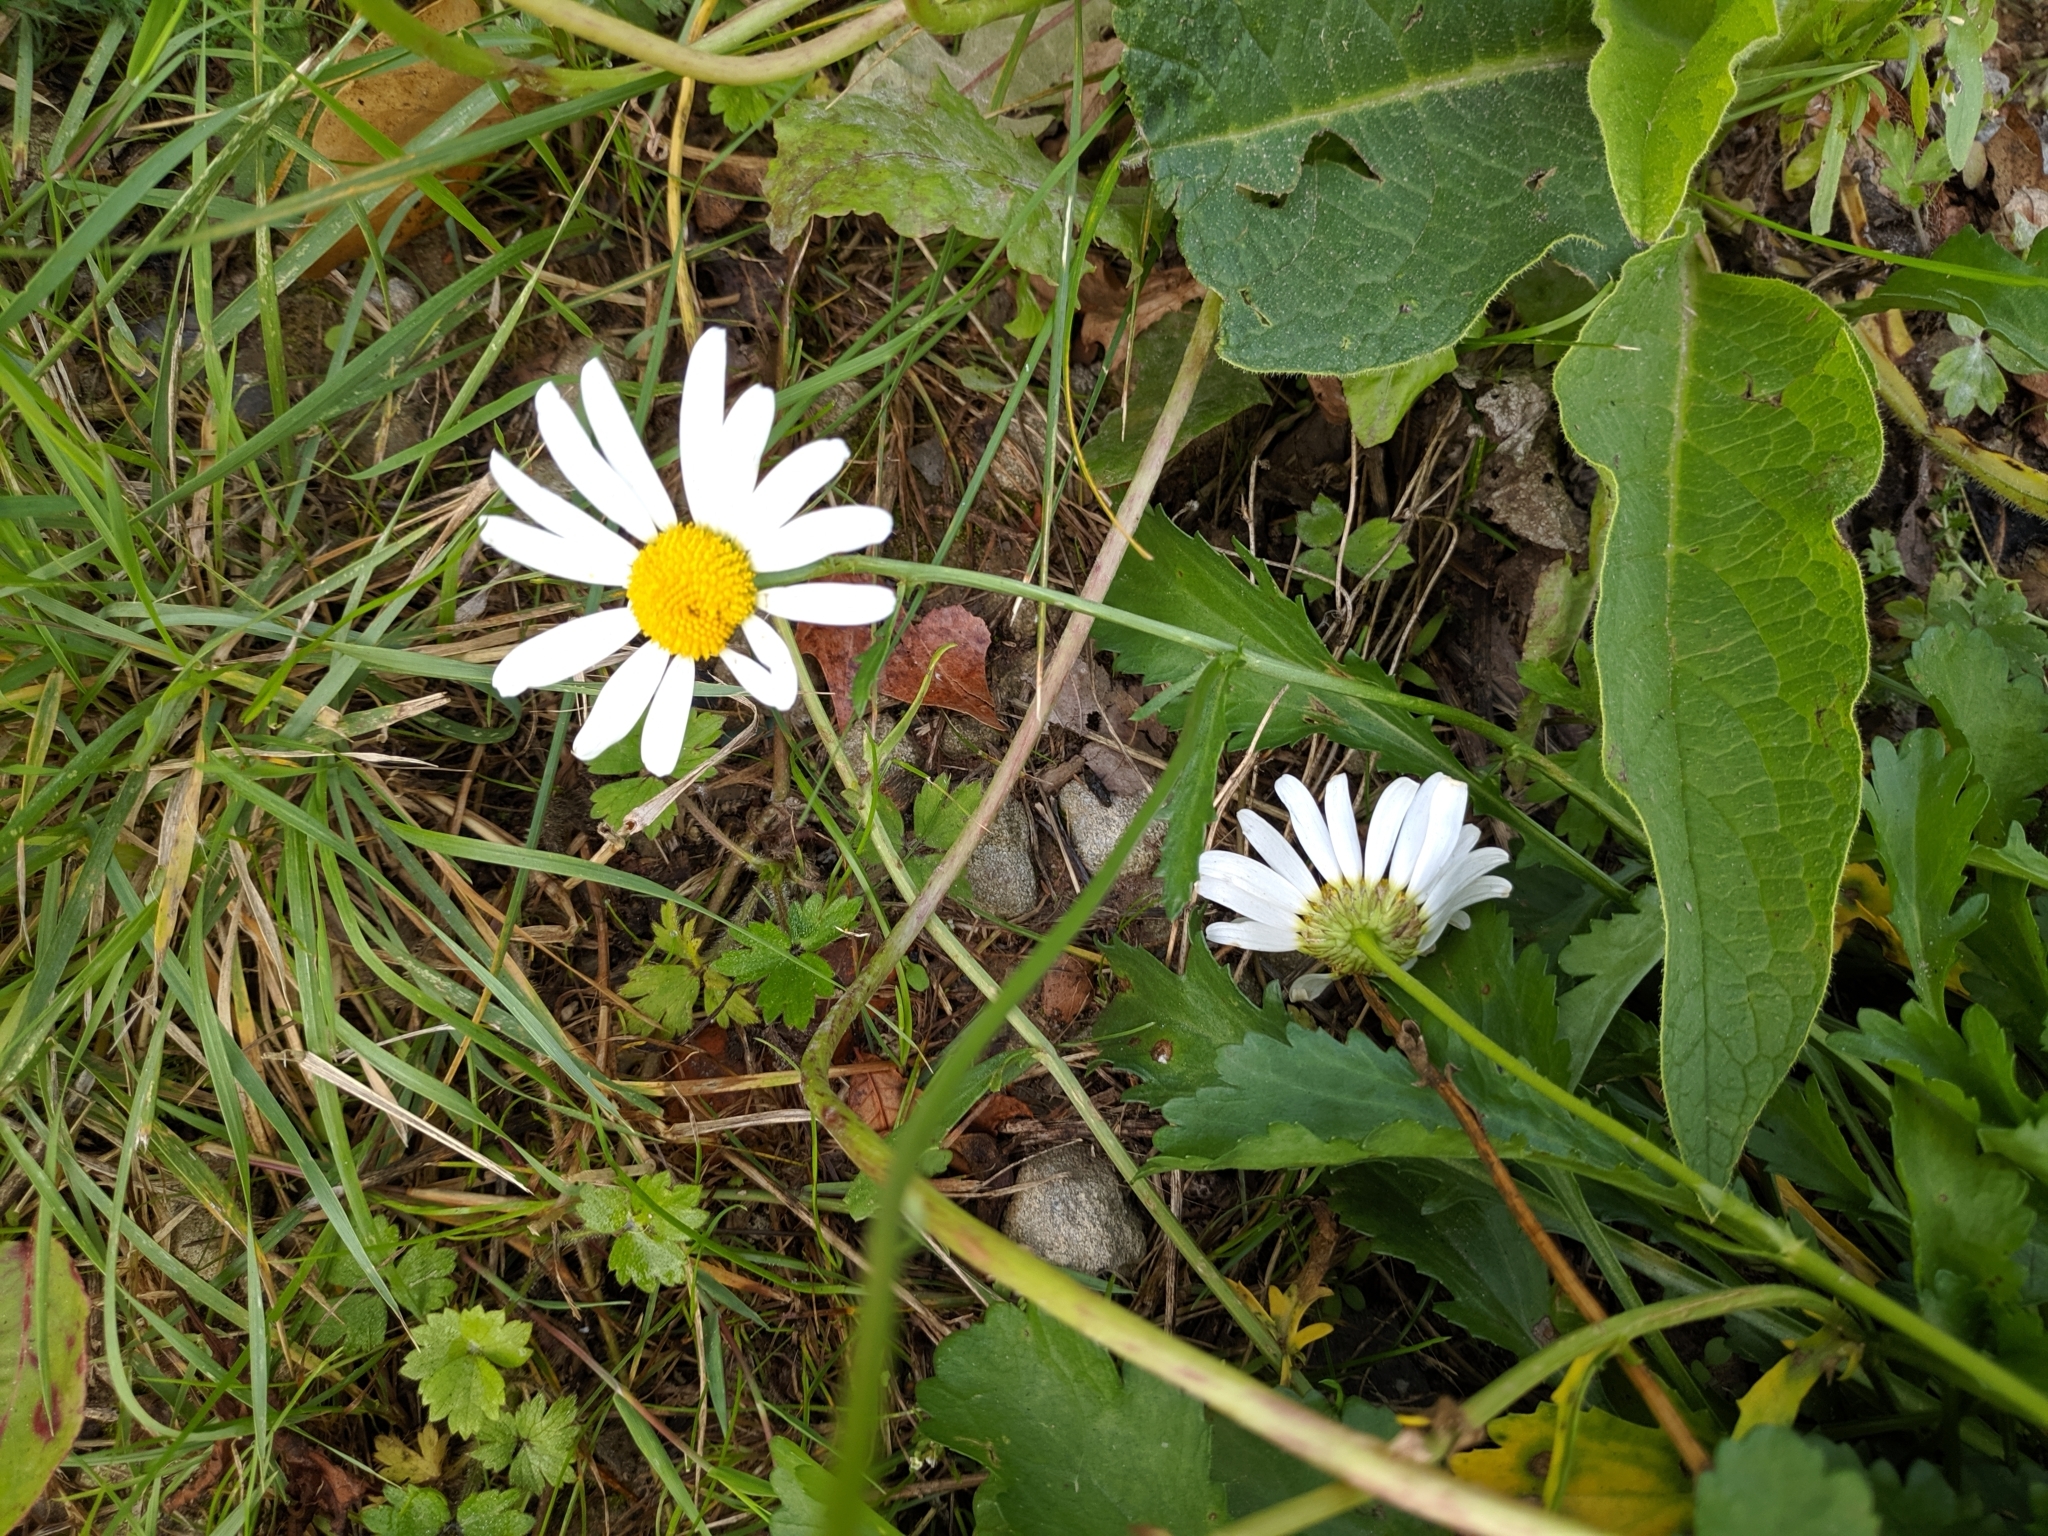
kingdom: Plantae
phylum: Tracheophyta
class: Magnoliopsida
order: Asterales
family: Asteraceae
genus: Leucanthemum
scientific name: Leucanthemum vulgare
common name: Oxeye daisy
